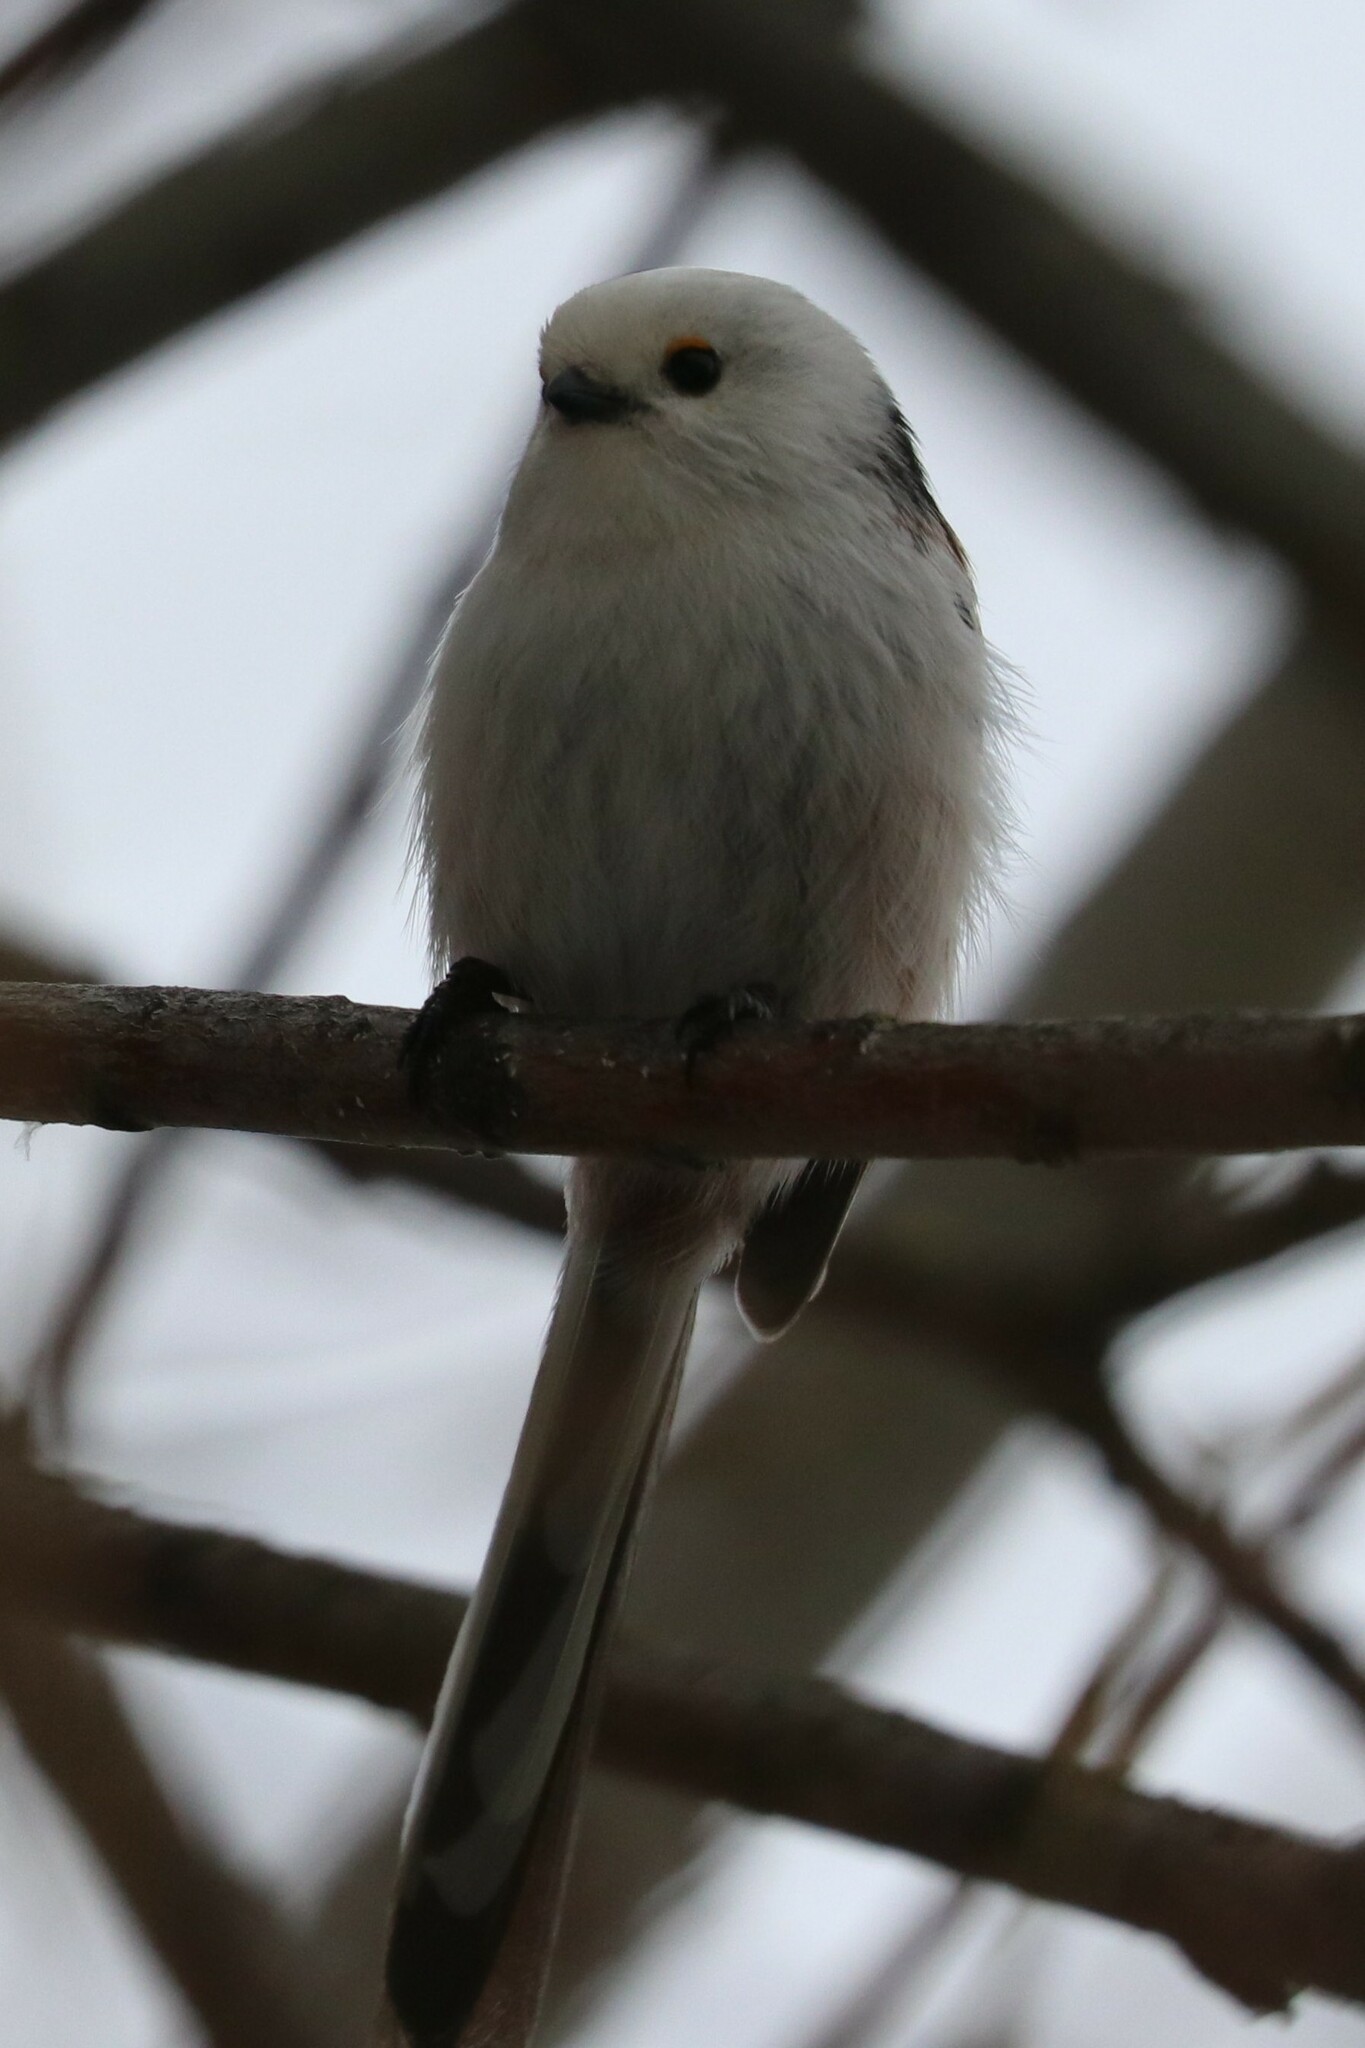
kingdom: Animalia
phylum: Chordata
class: Aves
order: Passeriformes
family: Aegithalidae
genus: Aegithalos
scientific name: Aegithalos caudatus
